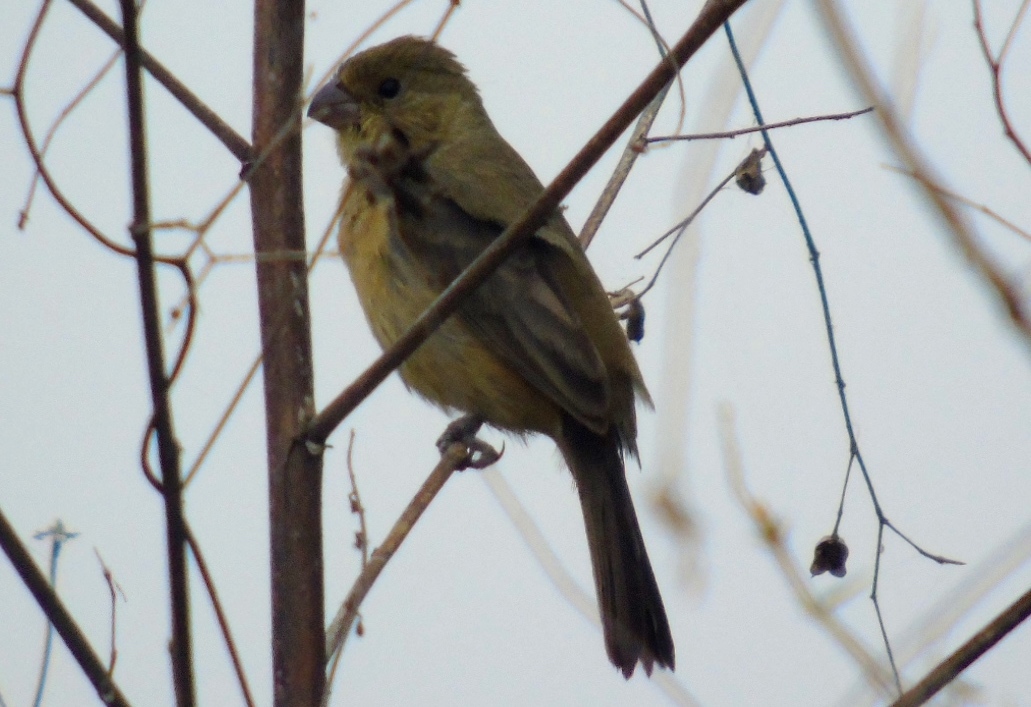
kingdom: Animalia
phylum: Chordata
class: Aves
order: Passeriformes
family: Thraupidae
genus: Sporophila
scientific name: Sporophila torqueola
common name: White-collared seedeater
